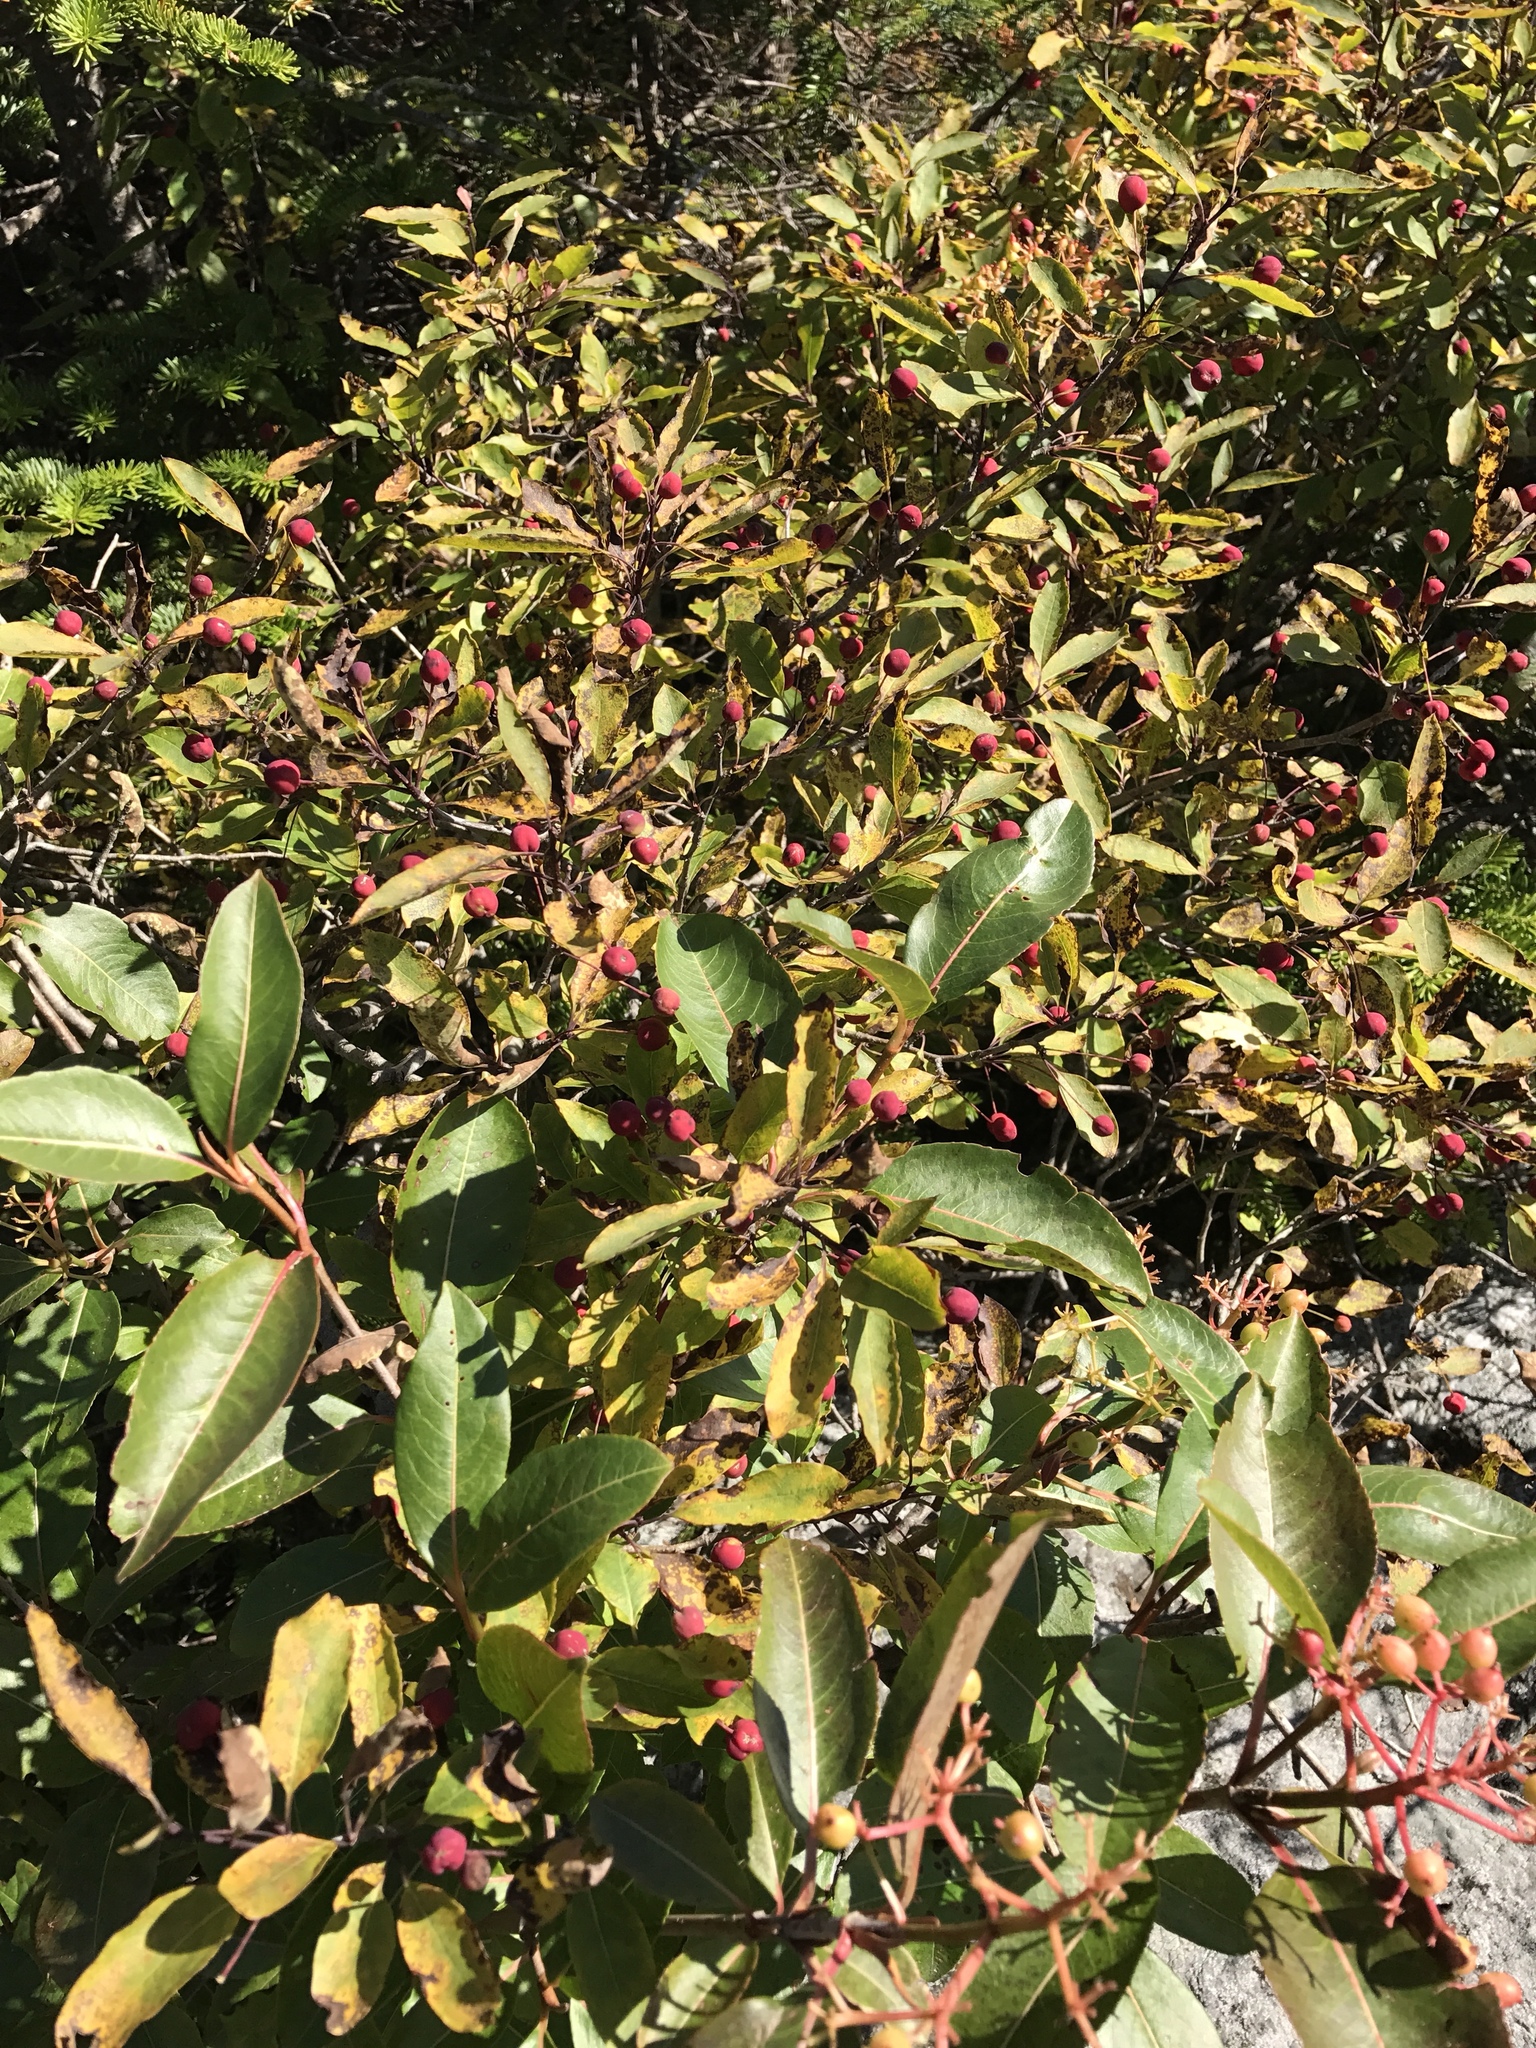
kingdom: Plantae
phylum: Tracheophyta
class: Magnoliopsida
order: Aquifoliales
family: Aquifoliaceae
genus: Ilex
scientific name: Ilex mucronata
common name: Catberry
